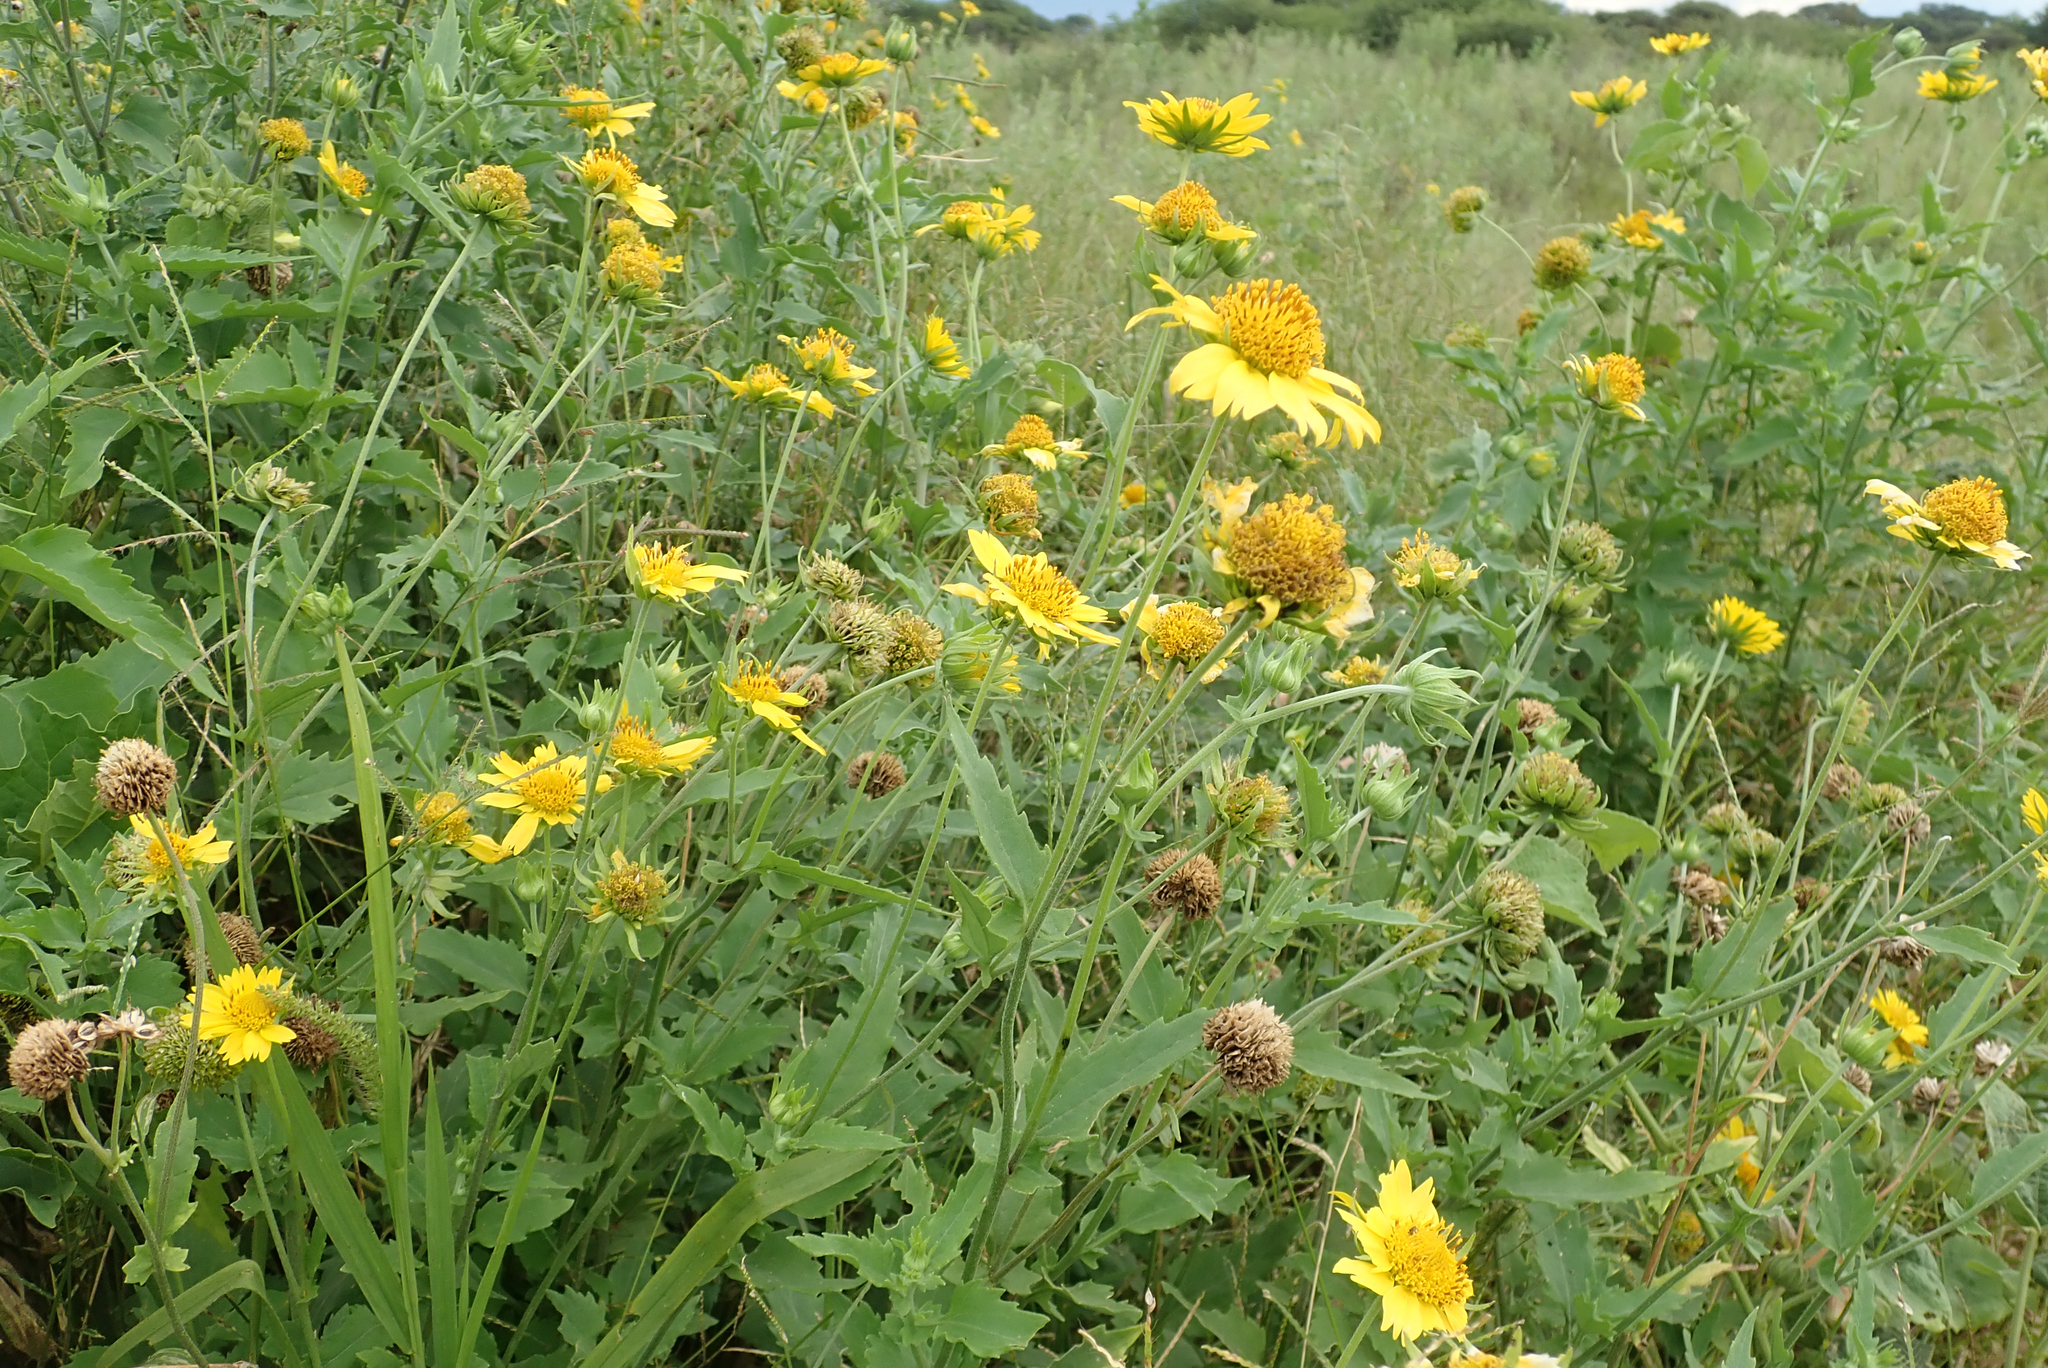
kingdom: Plantae
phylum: Tracheophyta
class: Magnoliopsida
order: Asterales
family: Asteraceae
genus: Verbesina
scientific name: Verbesina encelioides
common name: Golden crownbeard
